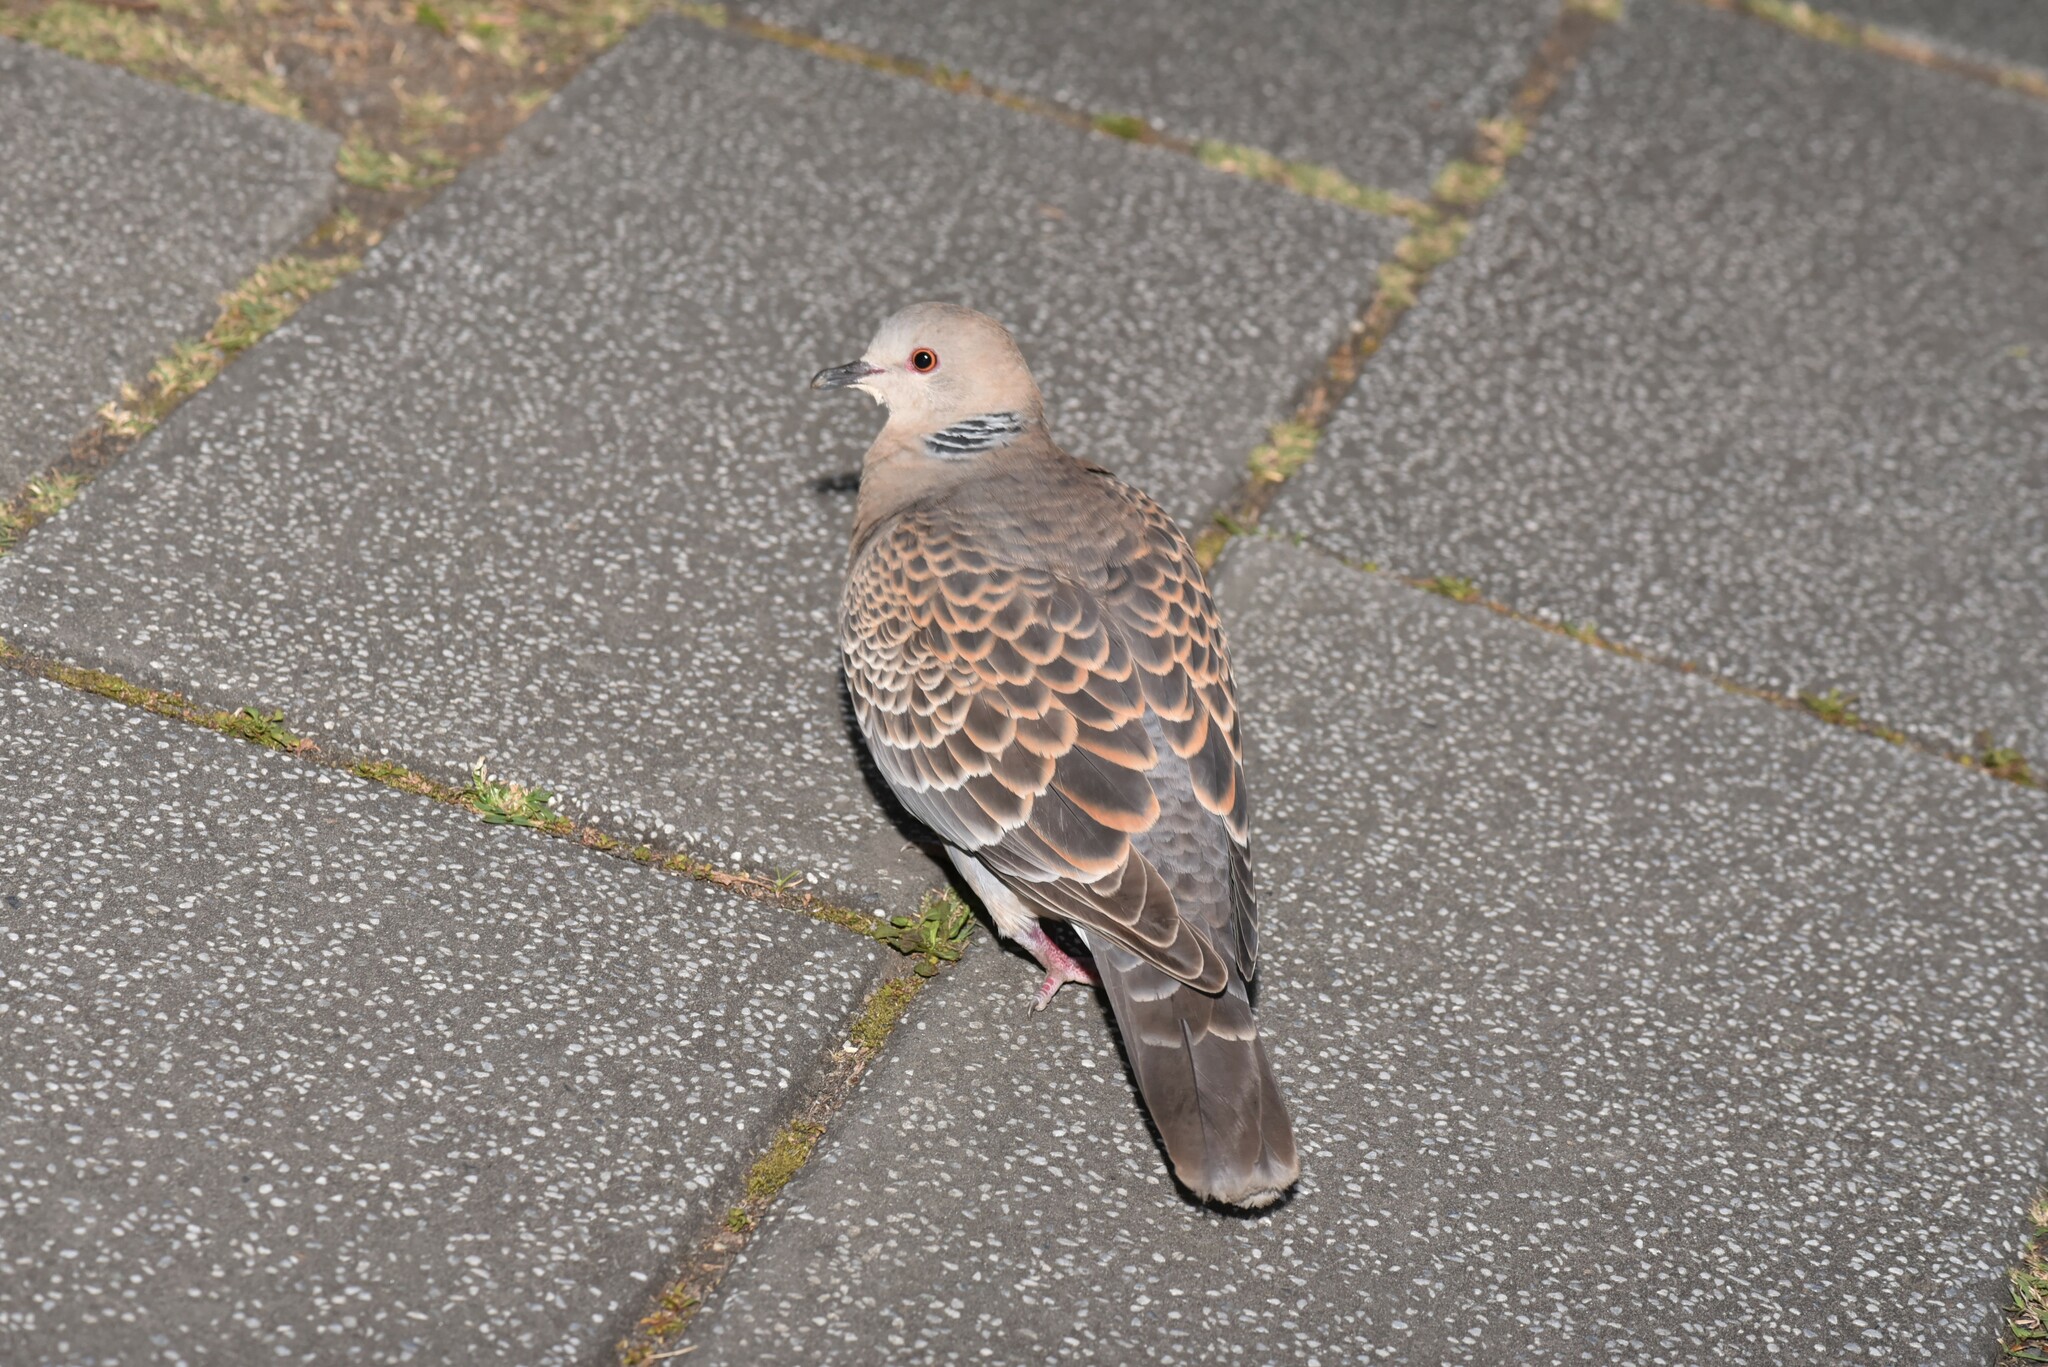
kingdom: Animalia
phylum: Chordata
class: Aves
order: Columbiformes
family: Columbidae
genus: Streptopelia
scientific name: Streptopelia orientalis
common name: Oriental turtle dove
